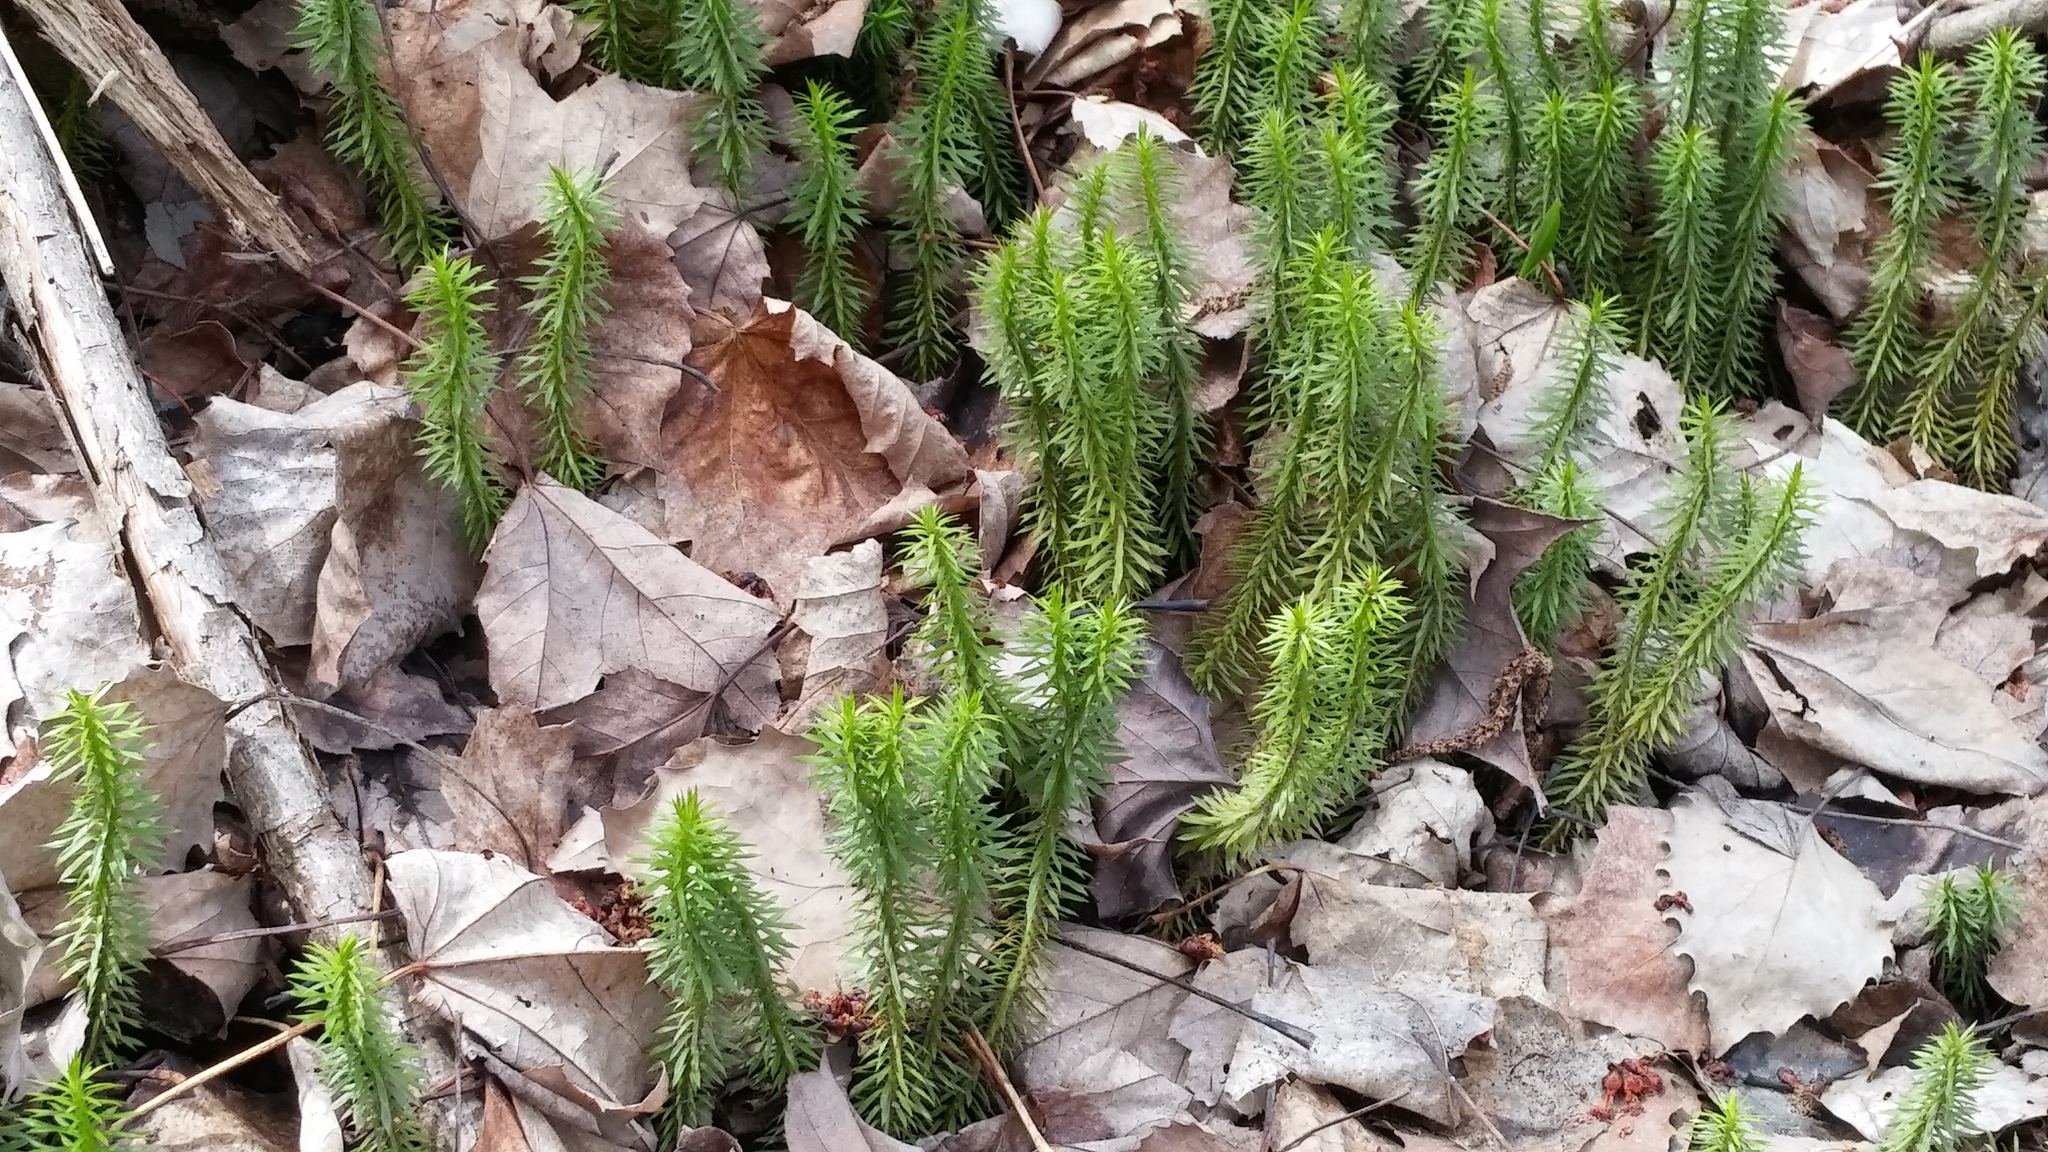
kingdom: Plantae
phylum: Tracheophyta
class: Lycopodiopsida
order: Lycopodiales
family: Lycopodiaceae
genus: Huperzia
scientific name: Huperzia lucidula
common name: Shining clubmoss
